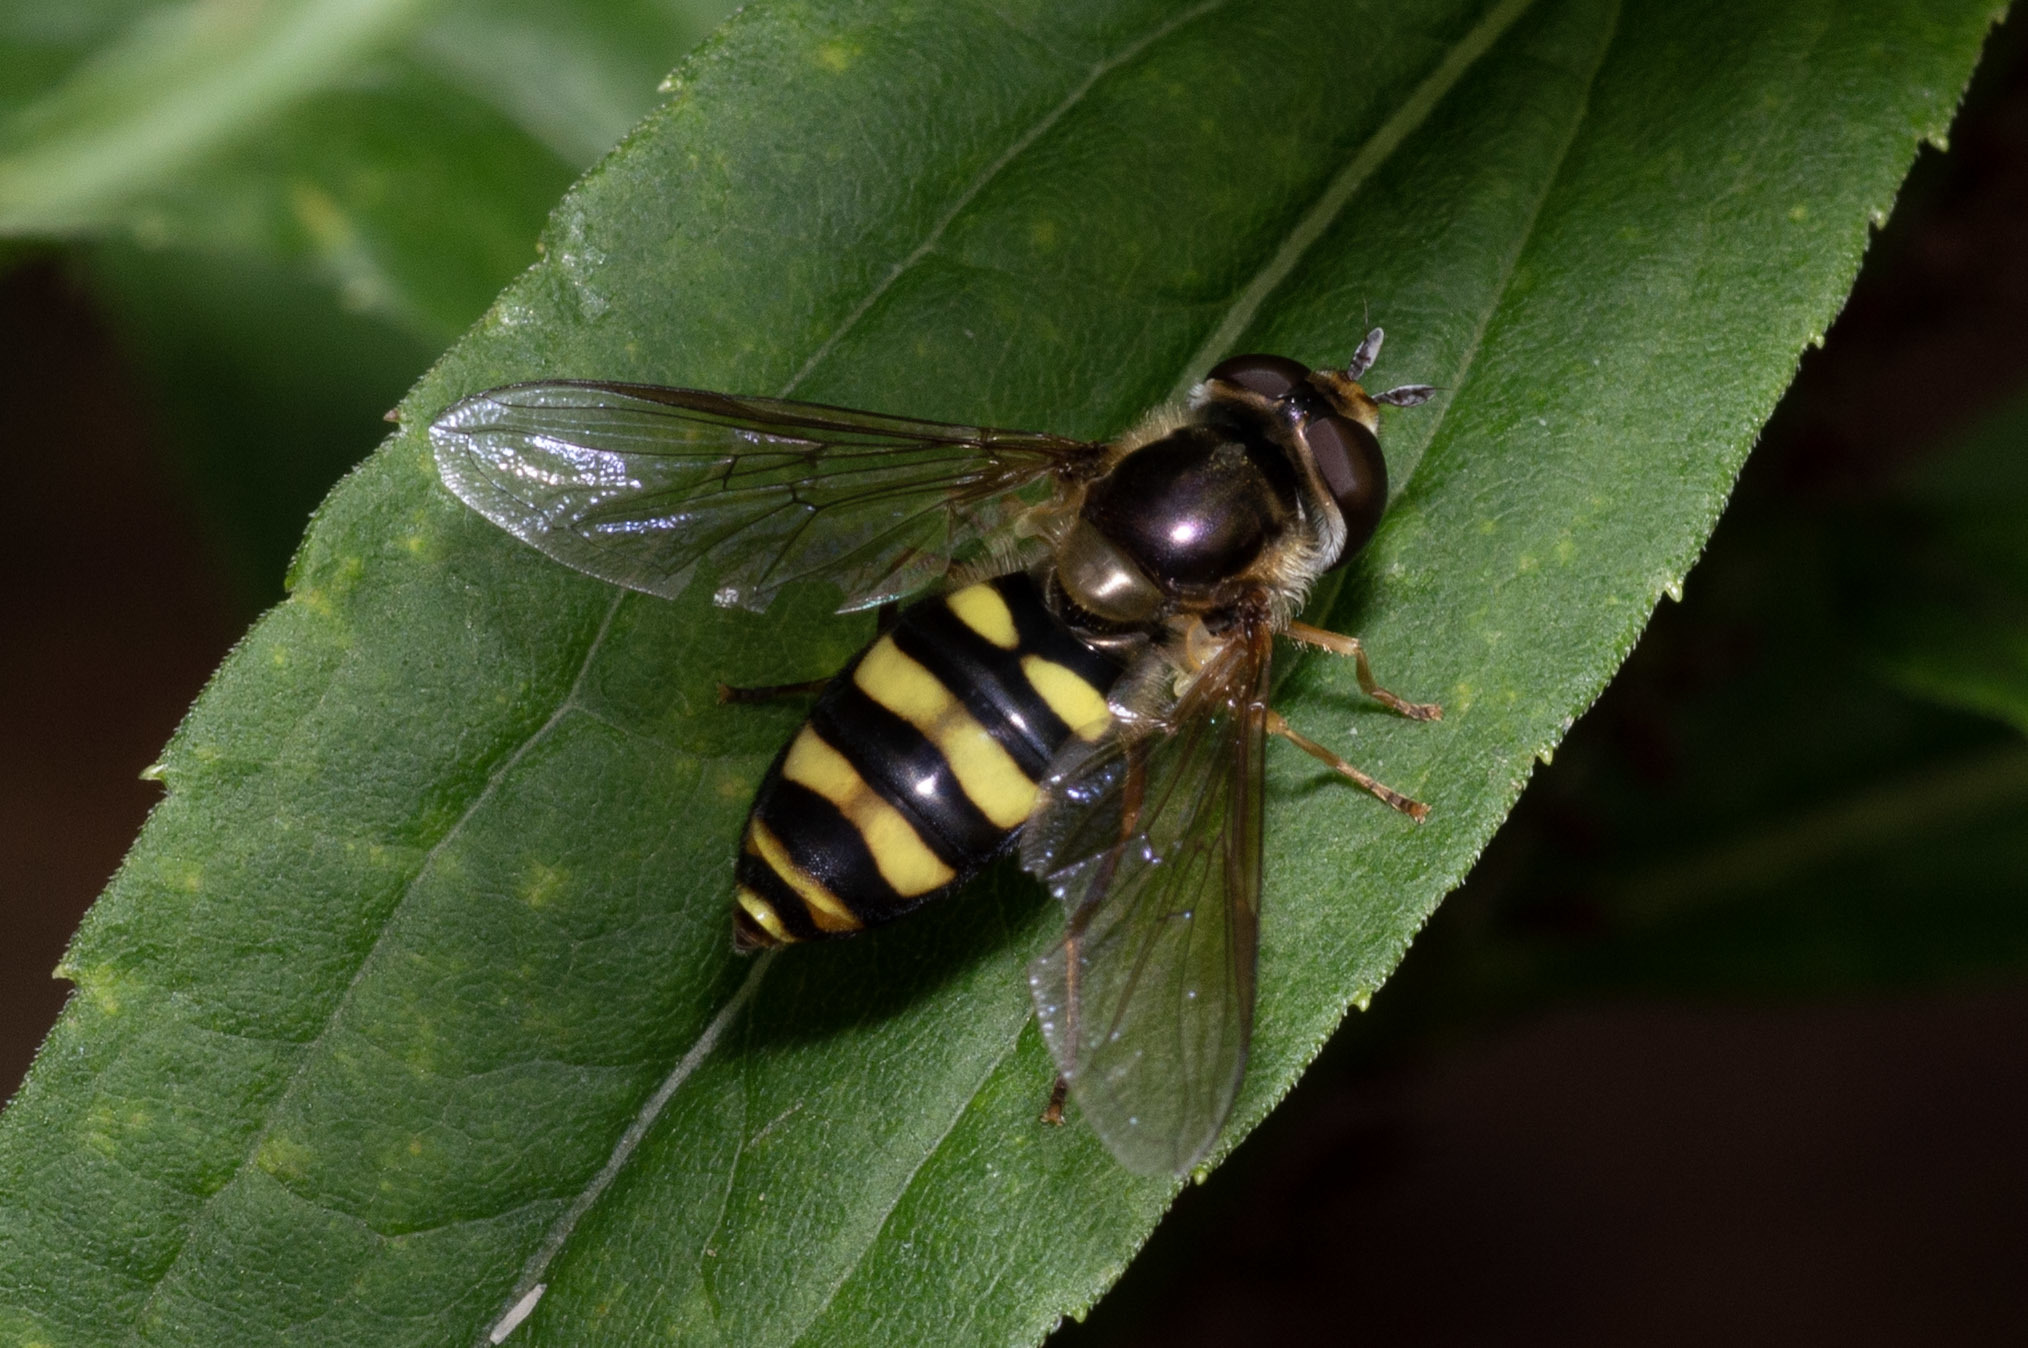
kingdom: Animalia
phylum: Arthropoda
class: Insecta
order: Diptera
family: Syrphidae
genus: Eupeodes
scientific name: Eupeodes
